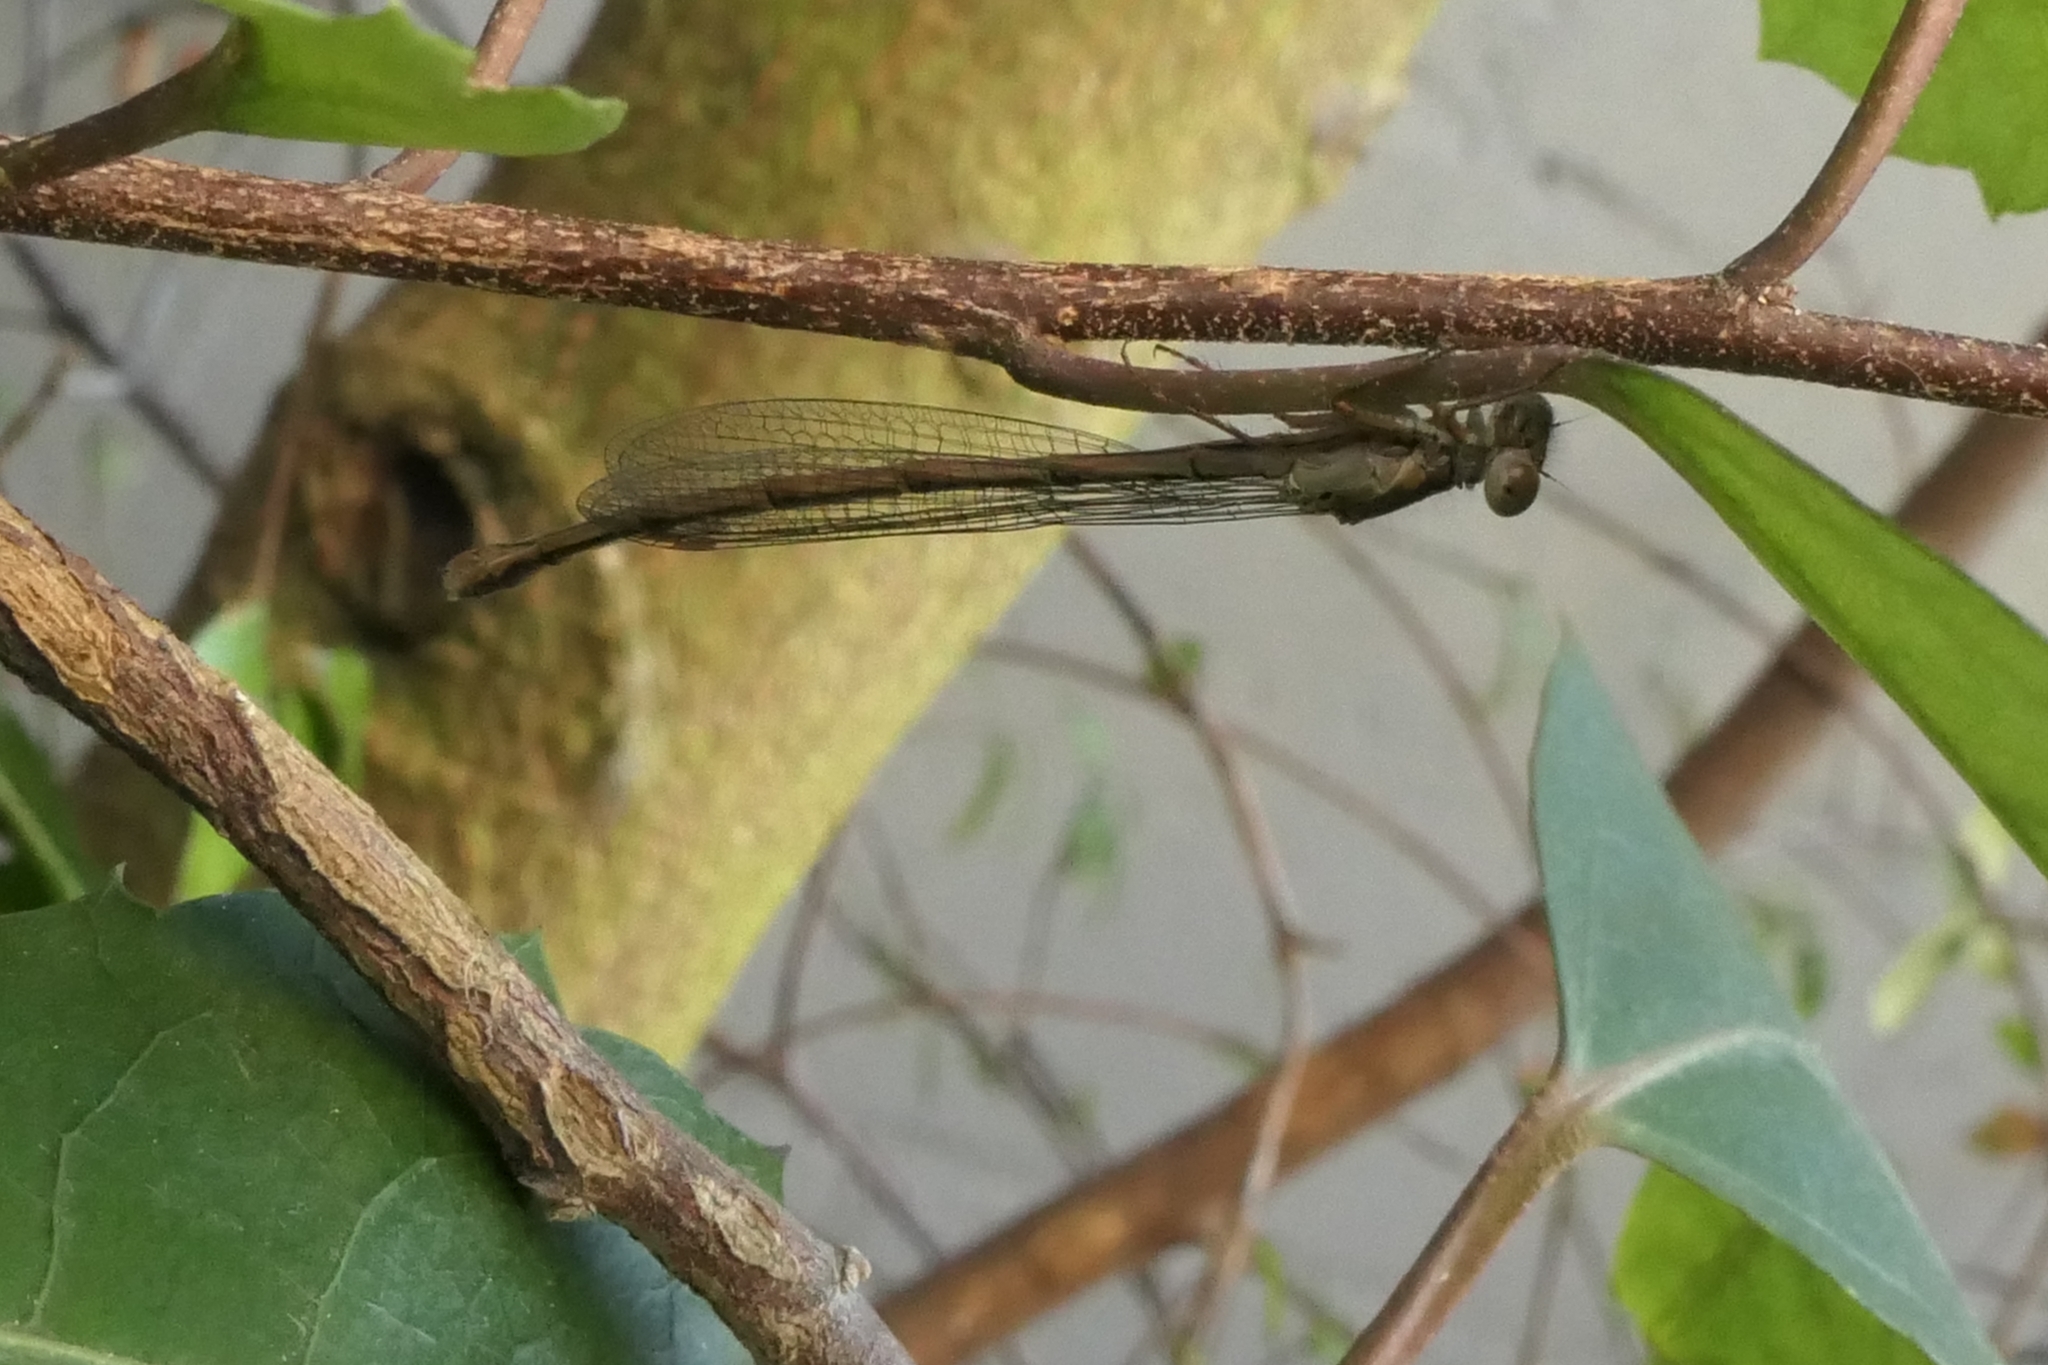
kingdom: Animalia
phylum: Arthropoda
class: Insecta
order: Odonata
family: Coenagrionidae
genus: Xanthocnemis
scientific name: Xanthocnemis zealandica
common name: Common redcoat damselfly
